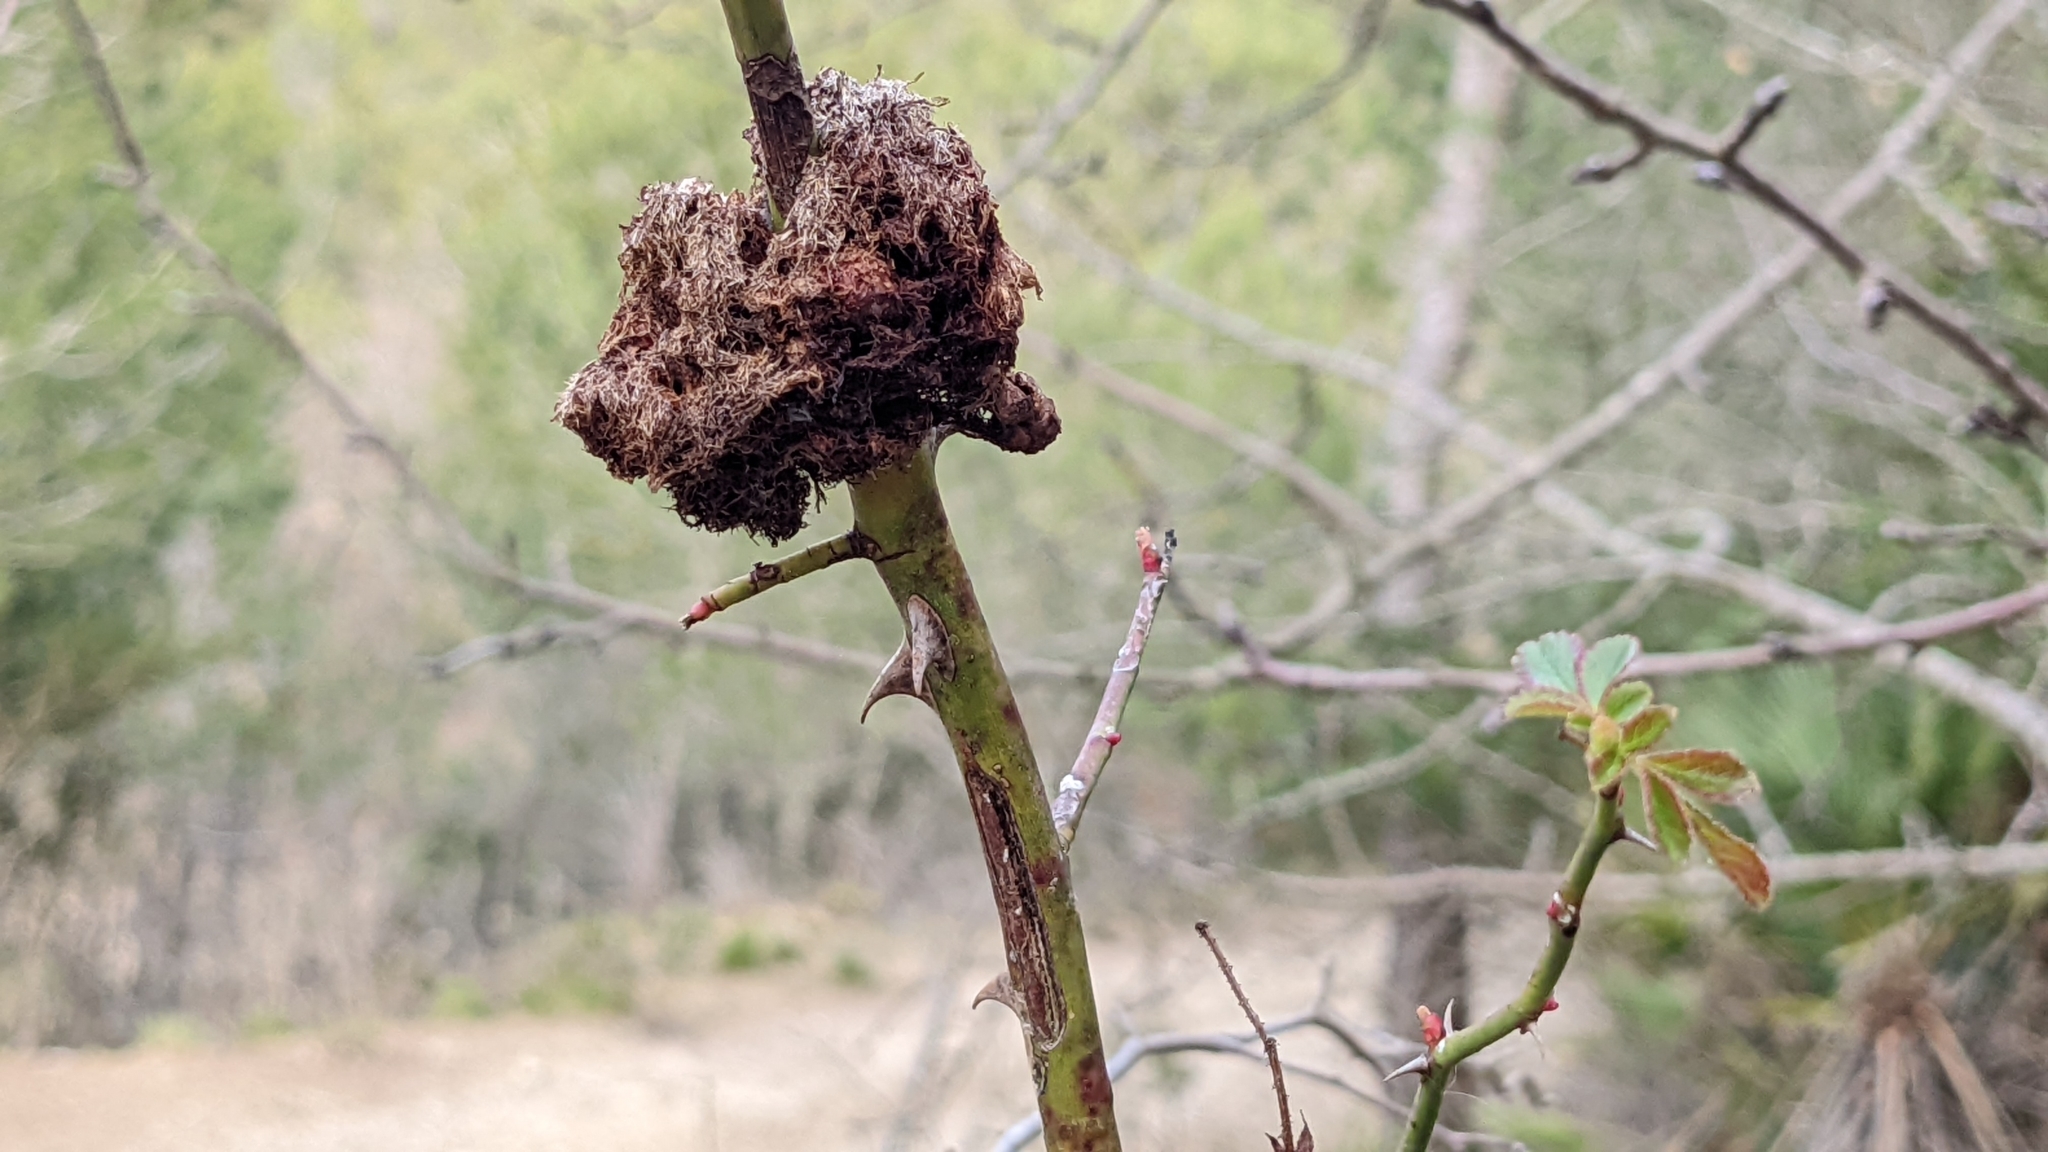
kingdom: Animalia
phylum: Arthropoda
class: Insecta
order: Hymenoptera
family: Cynipidae
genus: Diplolepis
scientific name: Diplolepis rosae
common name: Bedeguar gall
